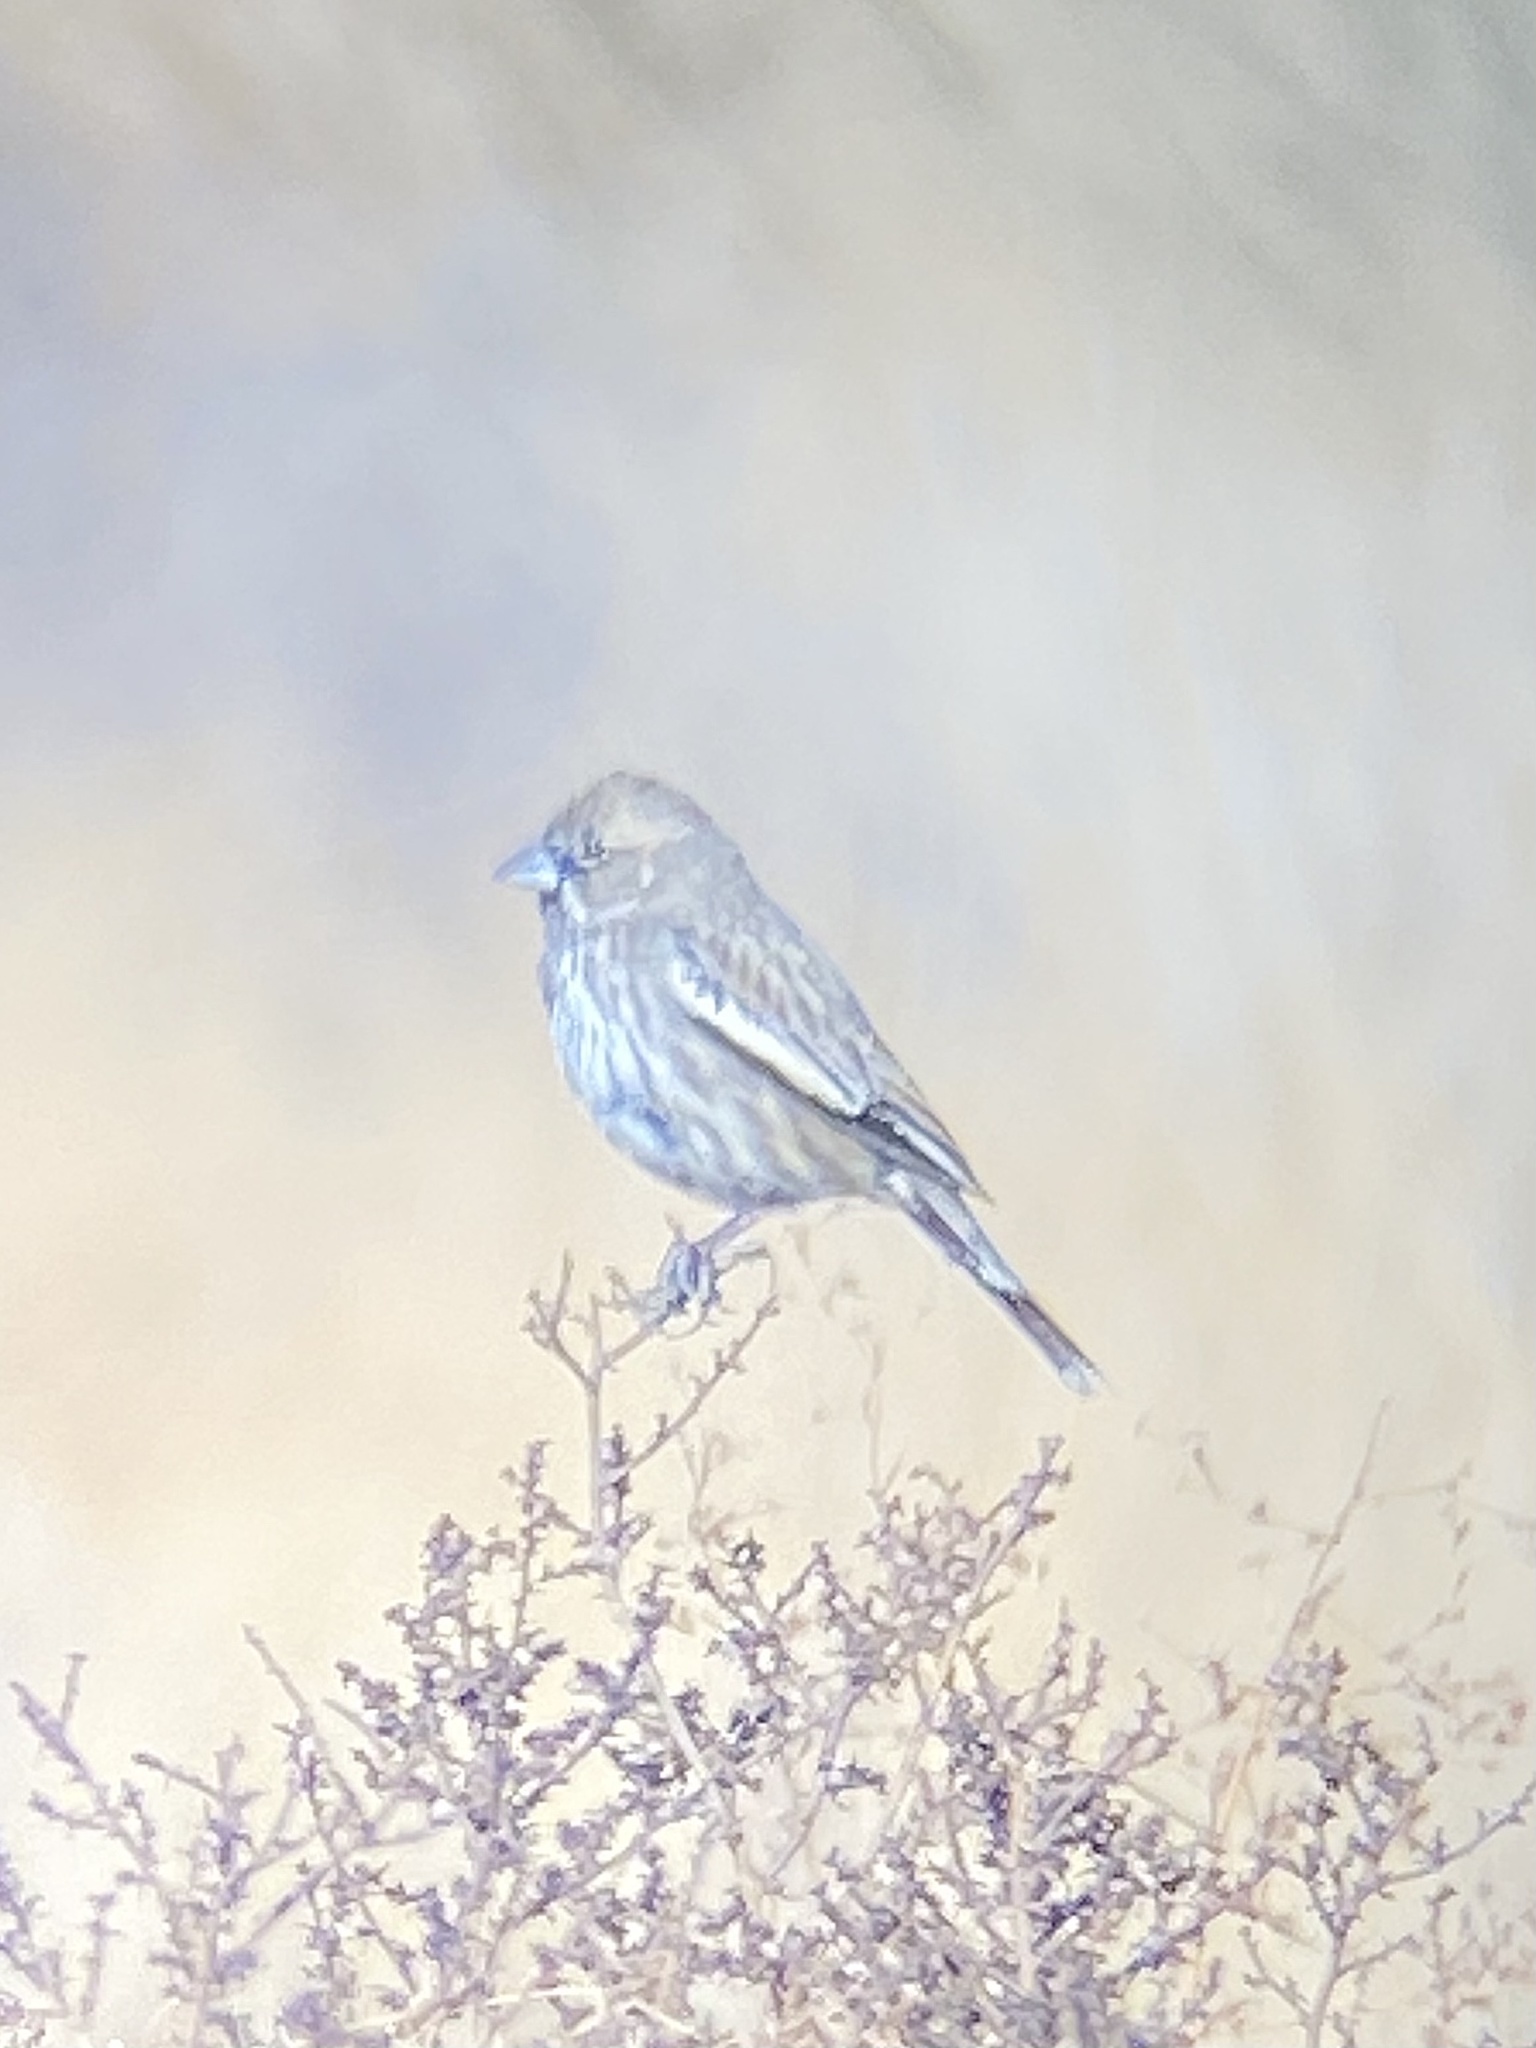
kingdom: Animalia
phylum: Chordata
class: Aves
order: Passeriformes
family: Passerellidae
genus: Calamospiza
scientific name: Calamospiza melanocorys
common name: Lark bunting
